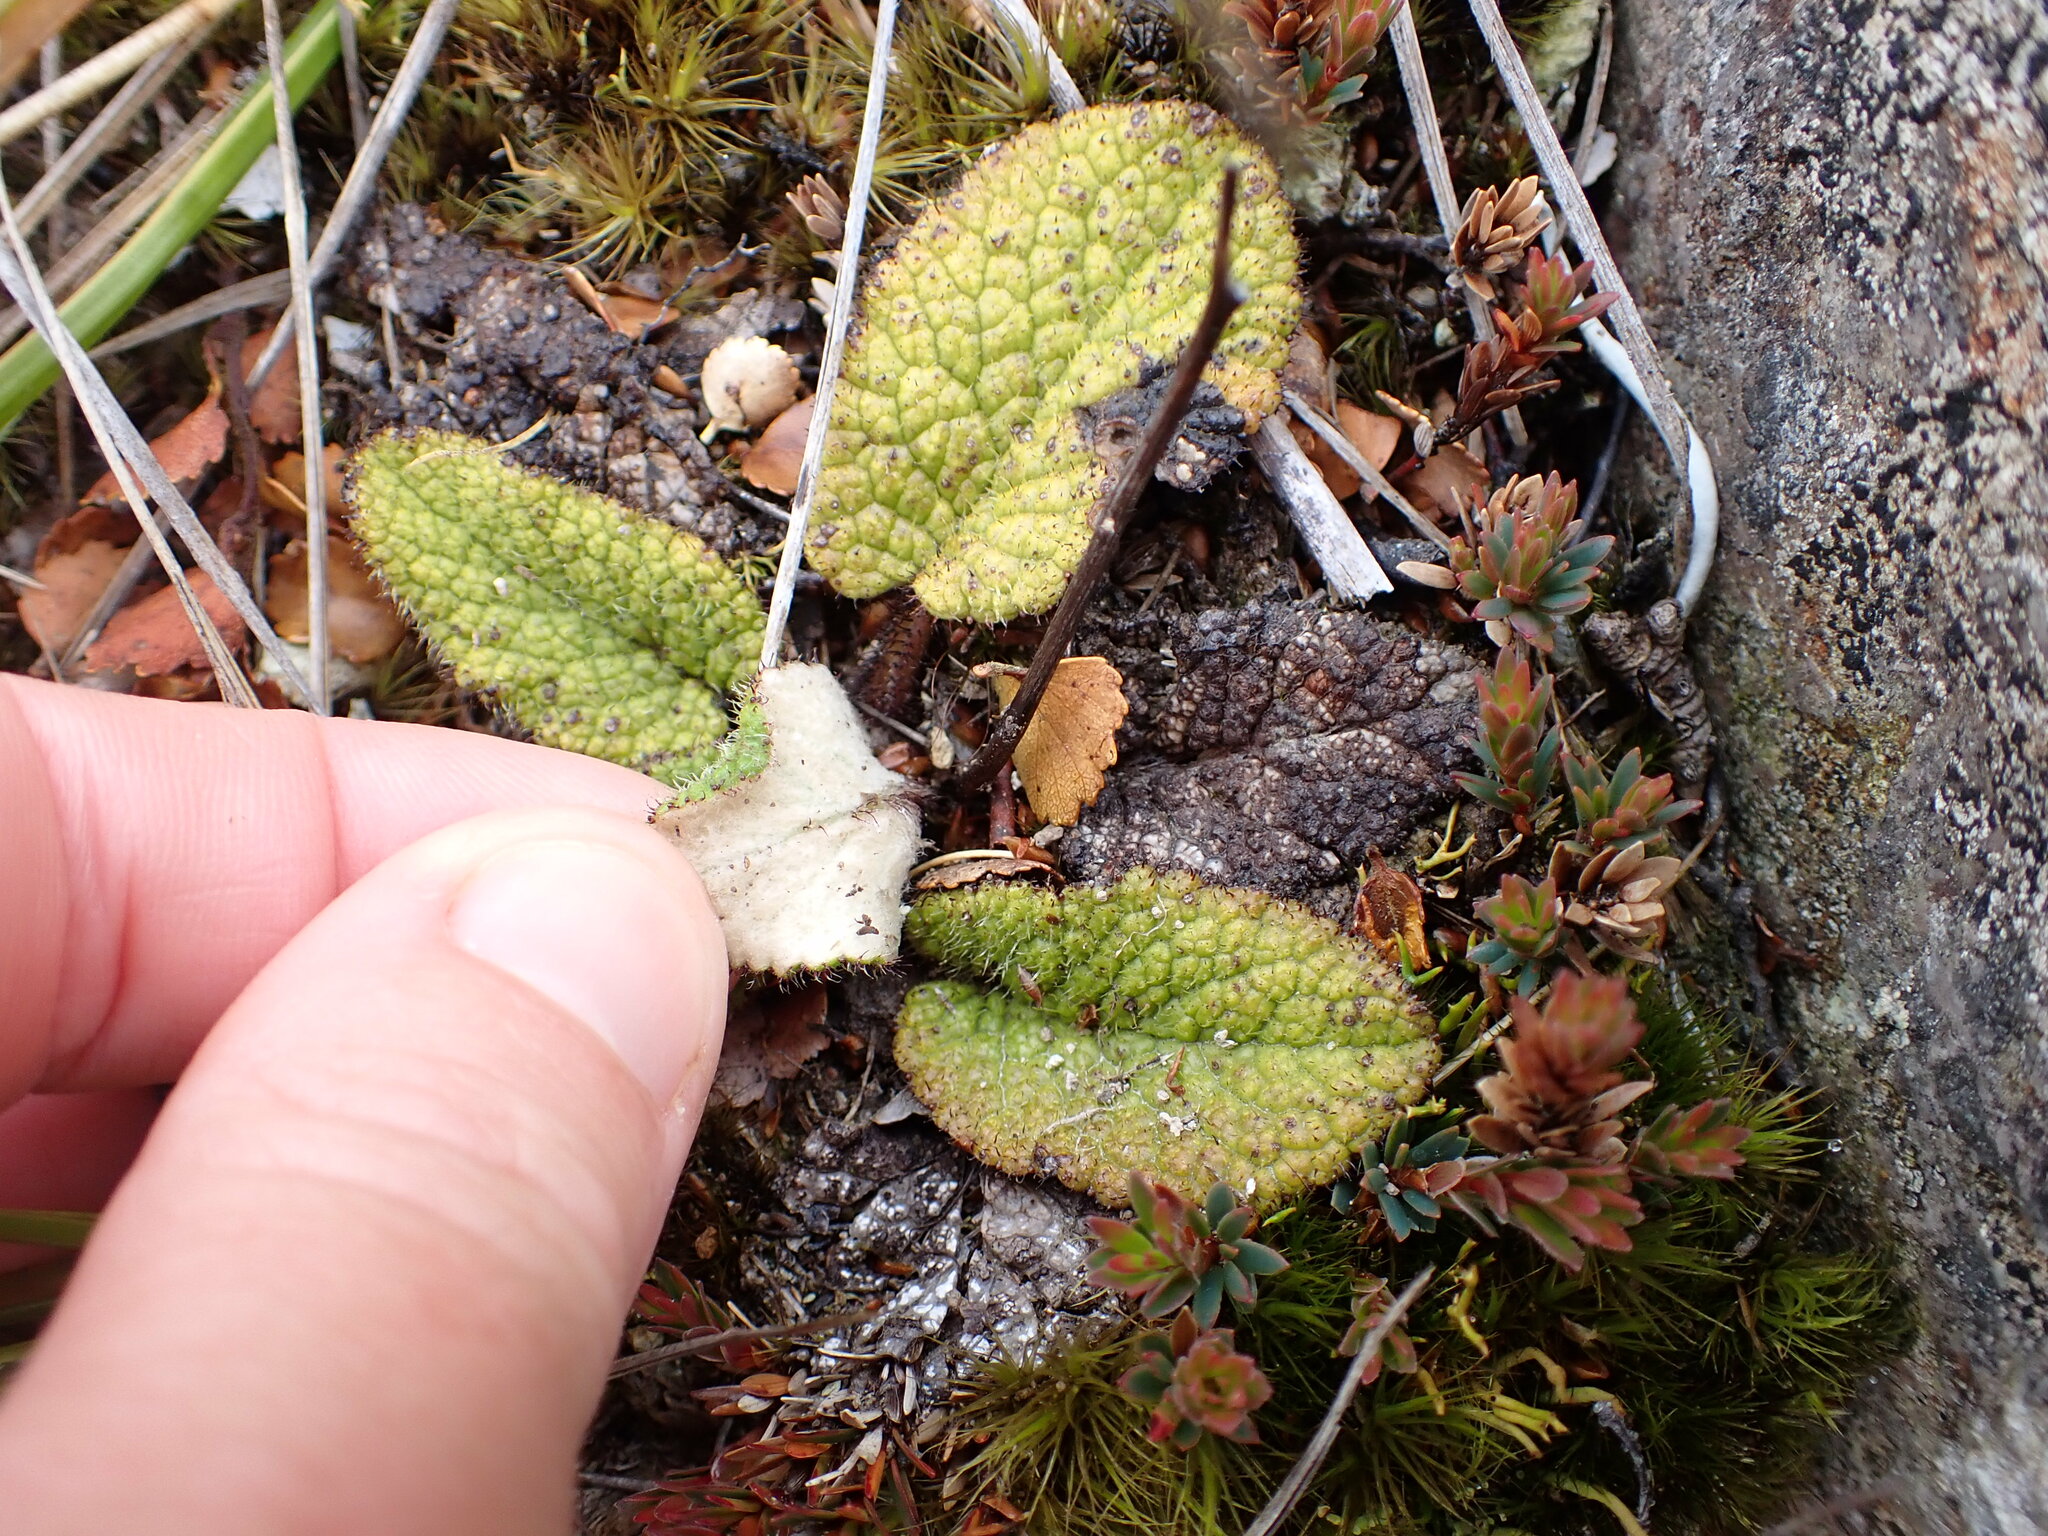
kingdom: Plantae
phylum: Tracheophyta
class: Magnoliopsida
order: Asterales
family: Asteraceae
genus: Brachyglottis
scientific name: Brachyglottis lagopus
